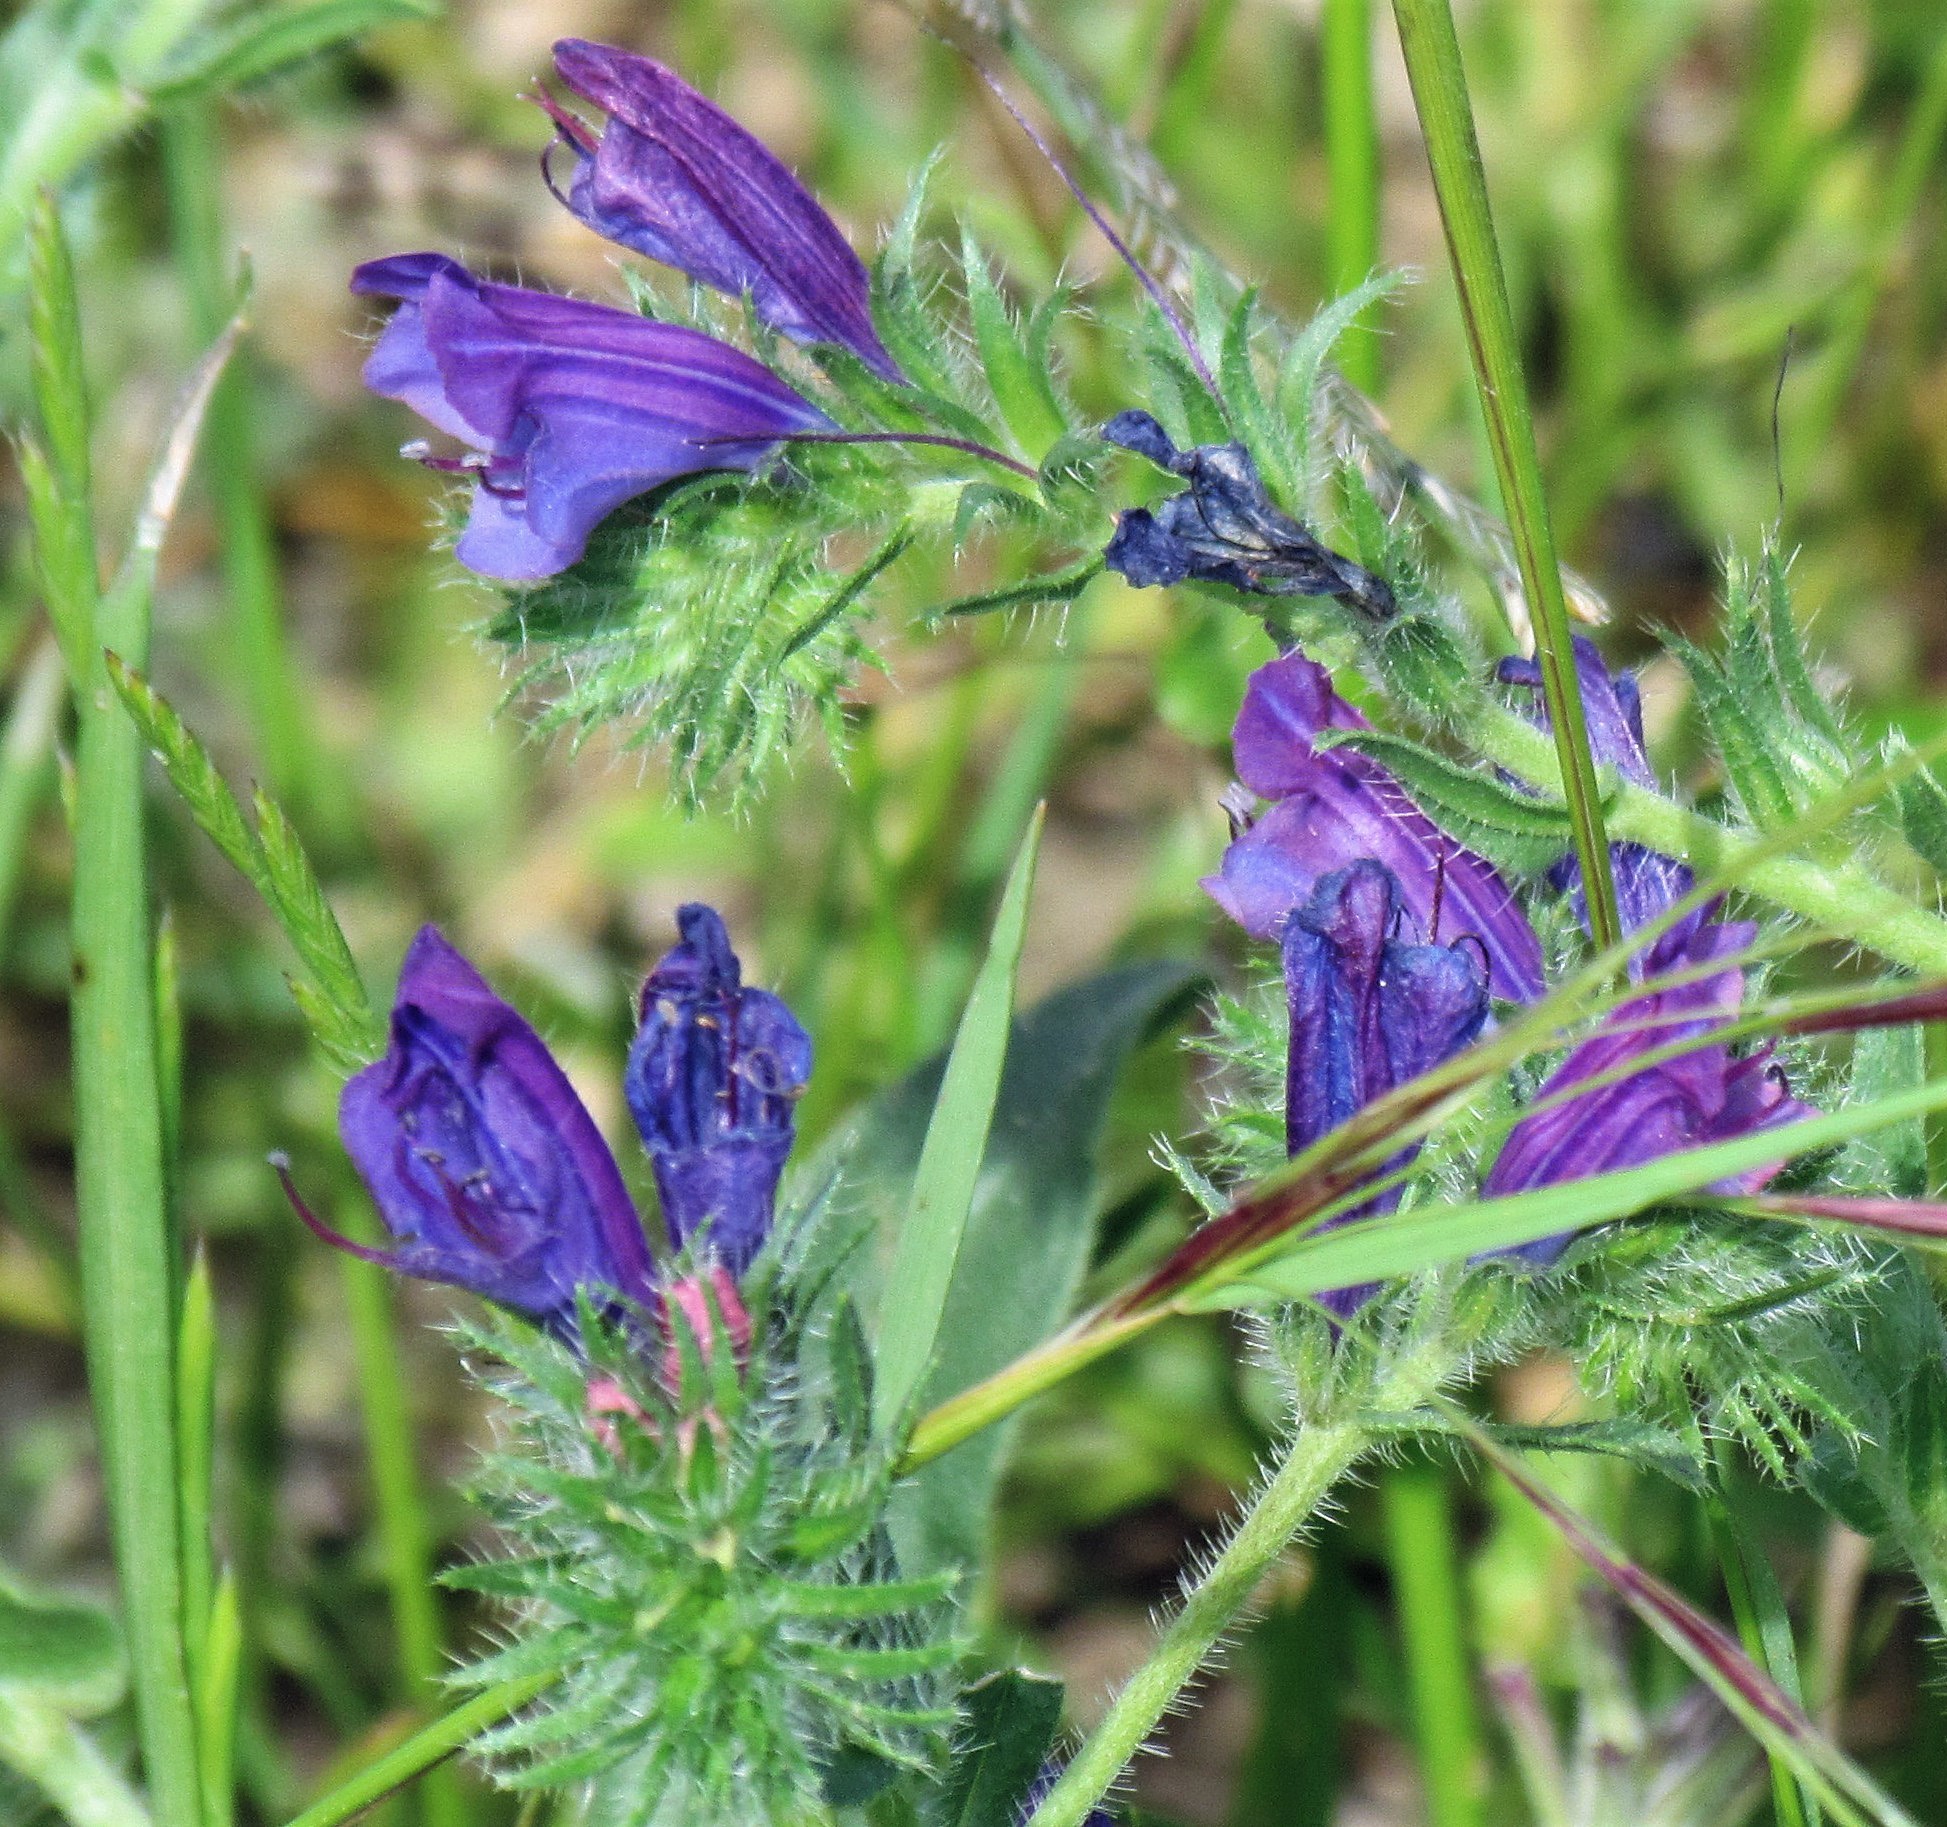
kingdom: Plantae
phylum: Tracheophyta
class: Magnoliopsida
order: Boraginales
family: Boraginaceae
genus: Echium
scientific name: Echium plantagineum
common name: Purple viper's-bugloss
